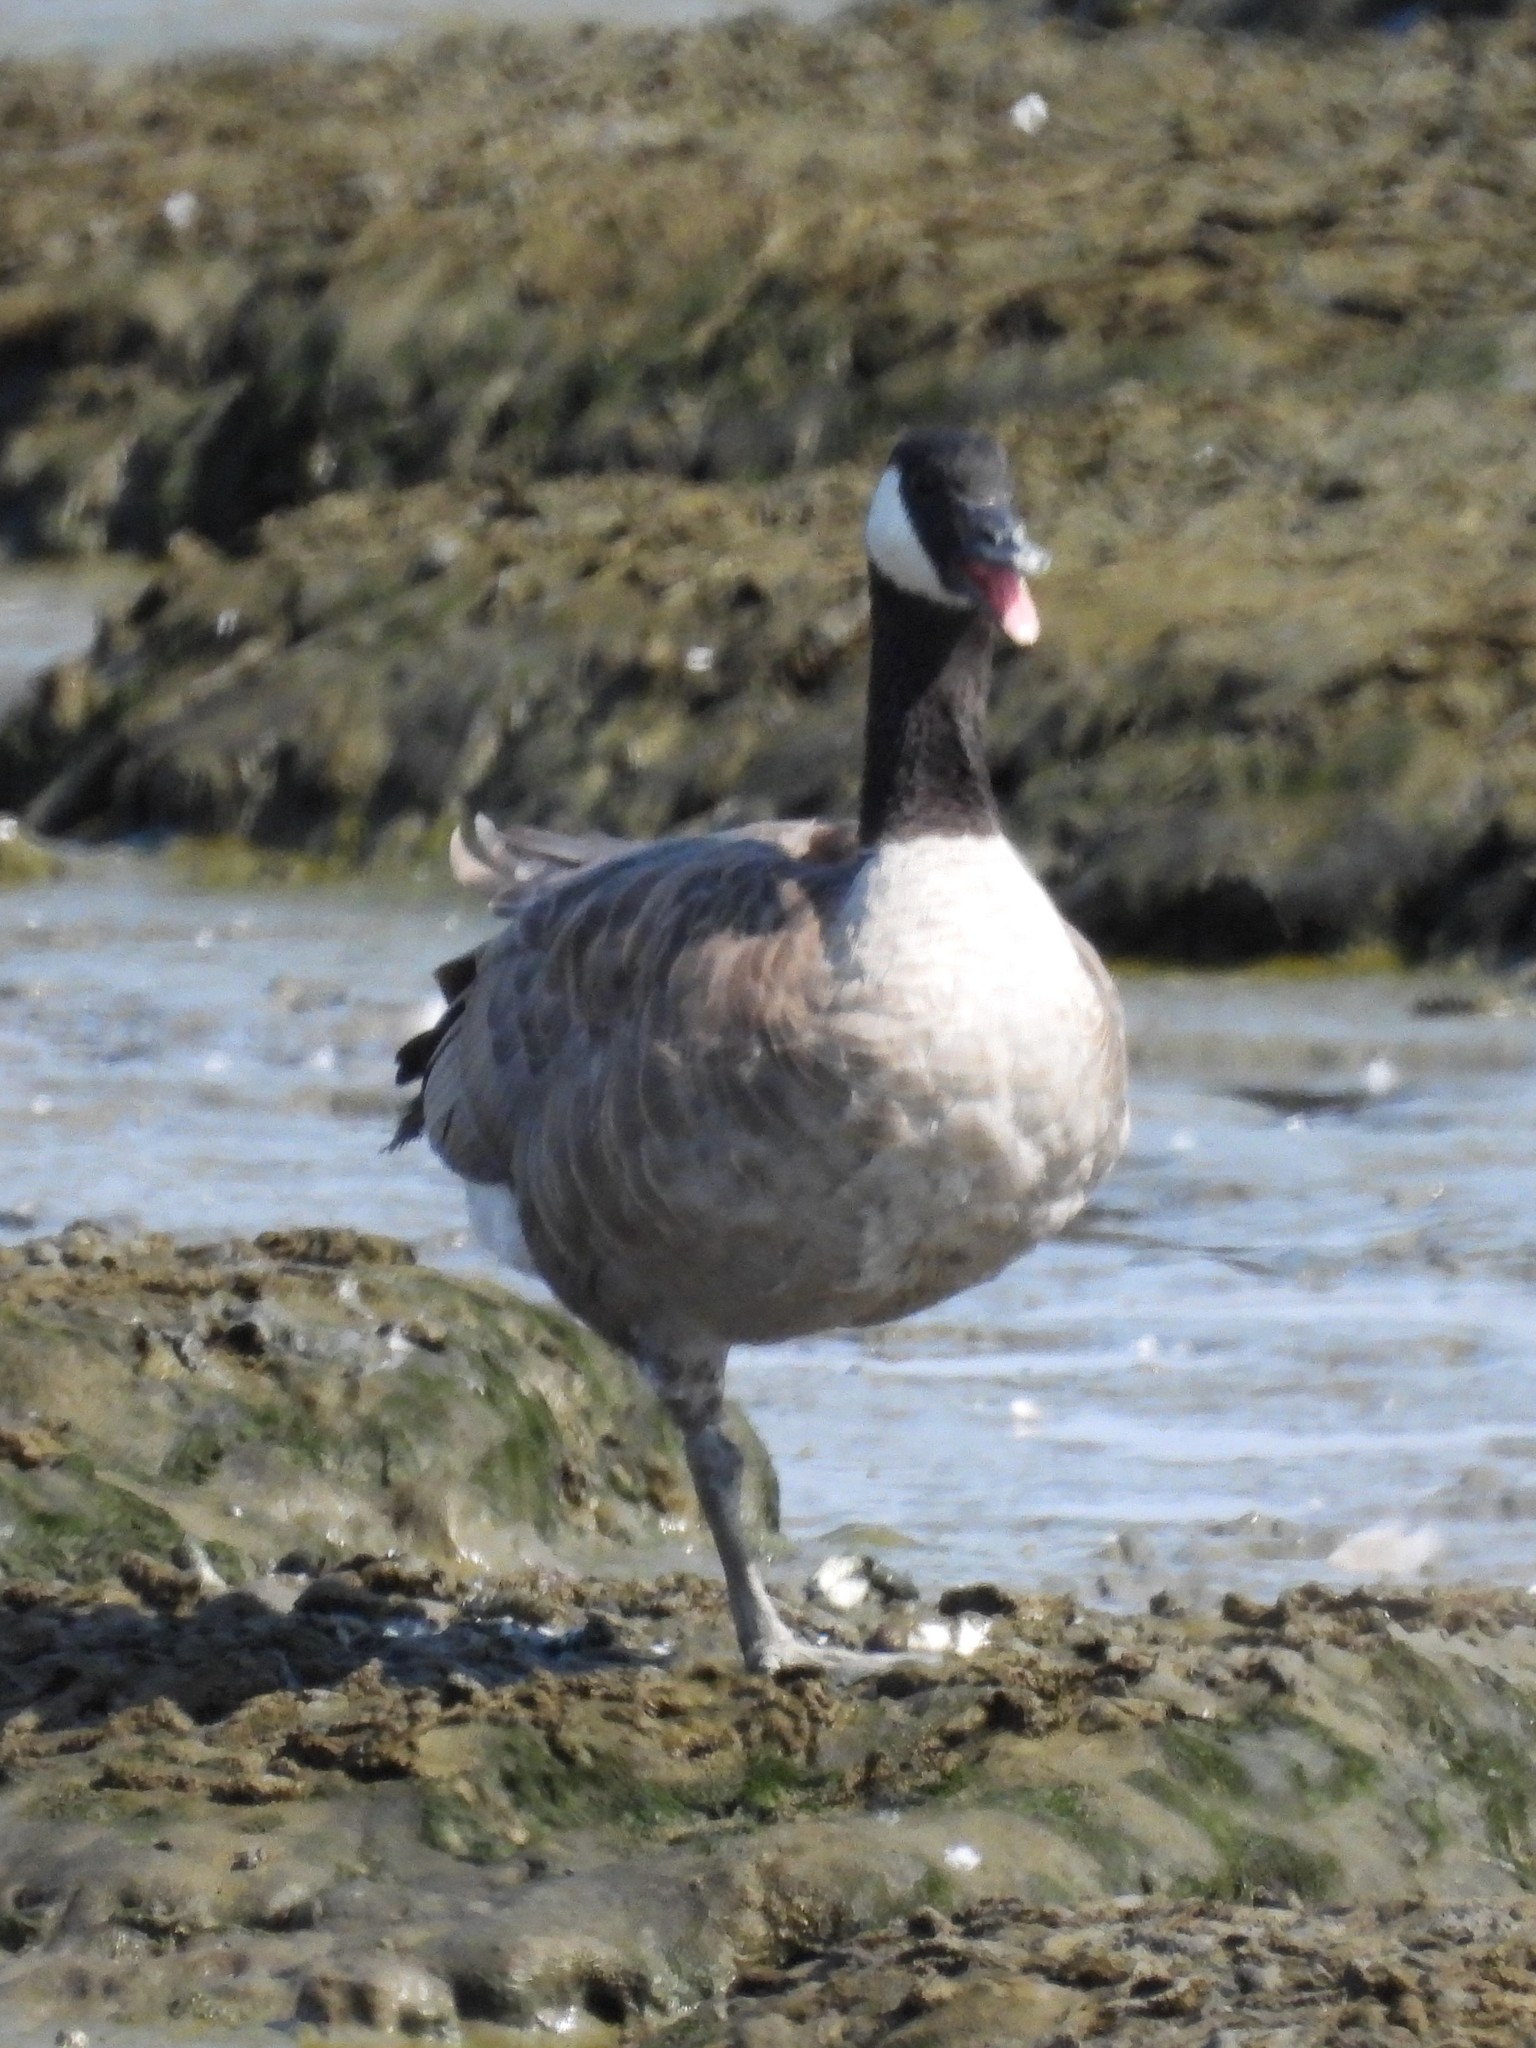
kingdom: Animalia
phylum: Chordata
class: Aves
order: Anseriformes
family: Anatidae
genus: Branta
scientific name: Branta canadensis
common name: Canada goose
